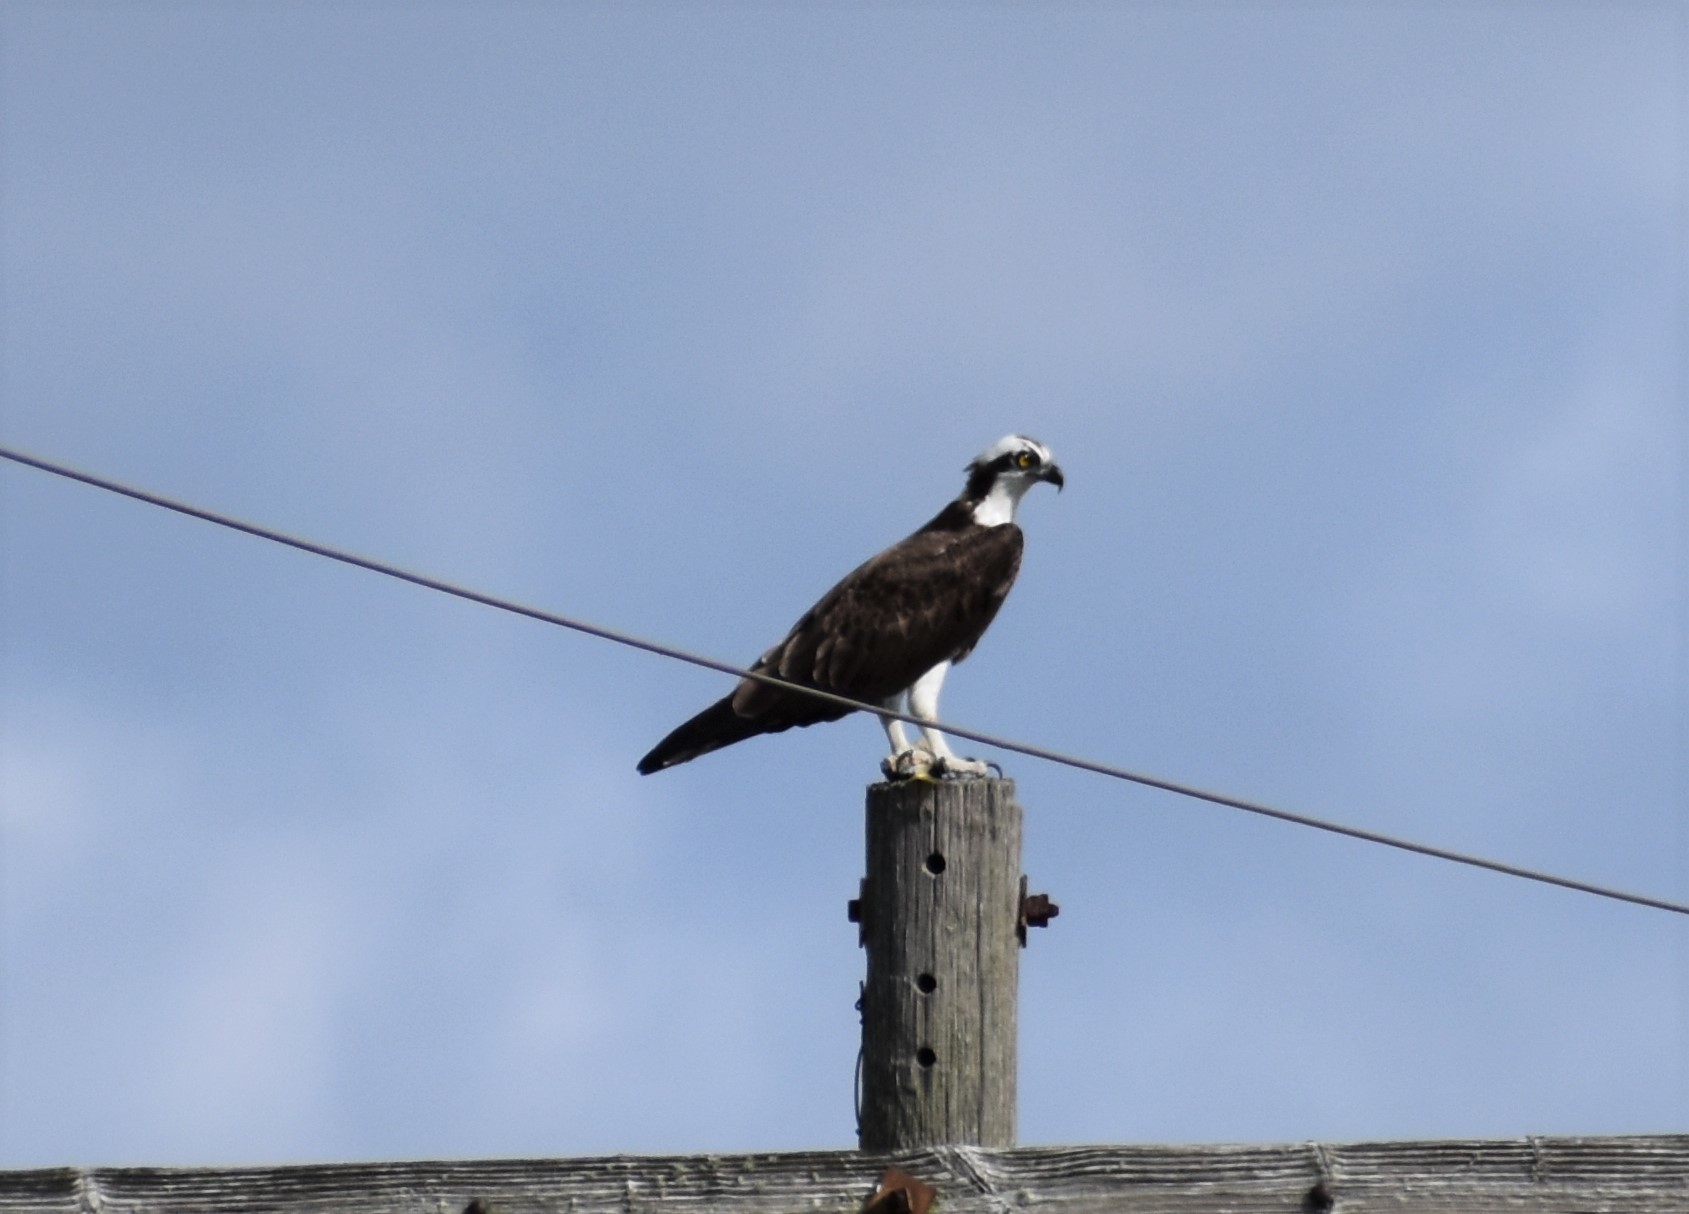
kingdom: Animalia
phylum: Chordata
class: Aves
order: Accipitriformes
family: Pandionidae
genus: Pandion
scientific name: Pandion haliaetus
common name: Osprey
